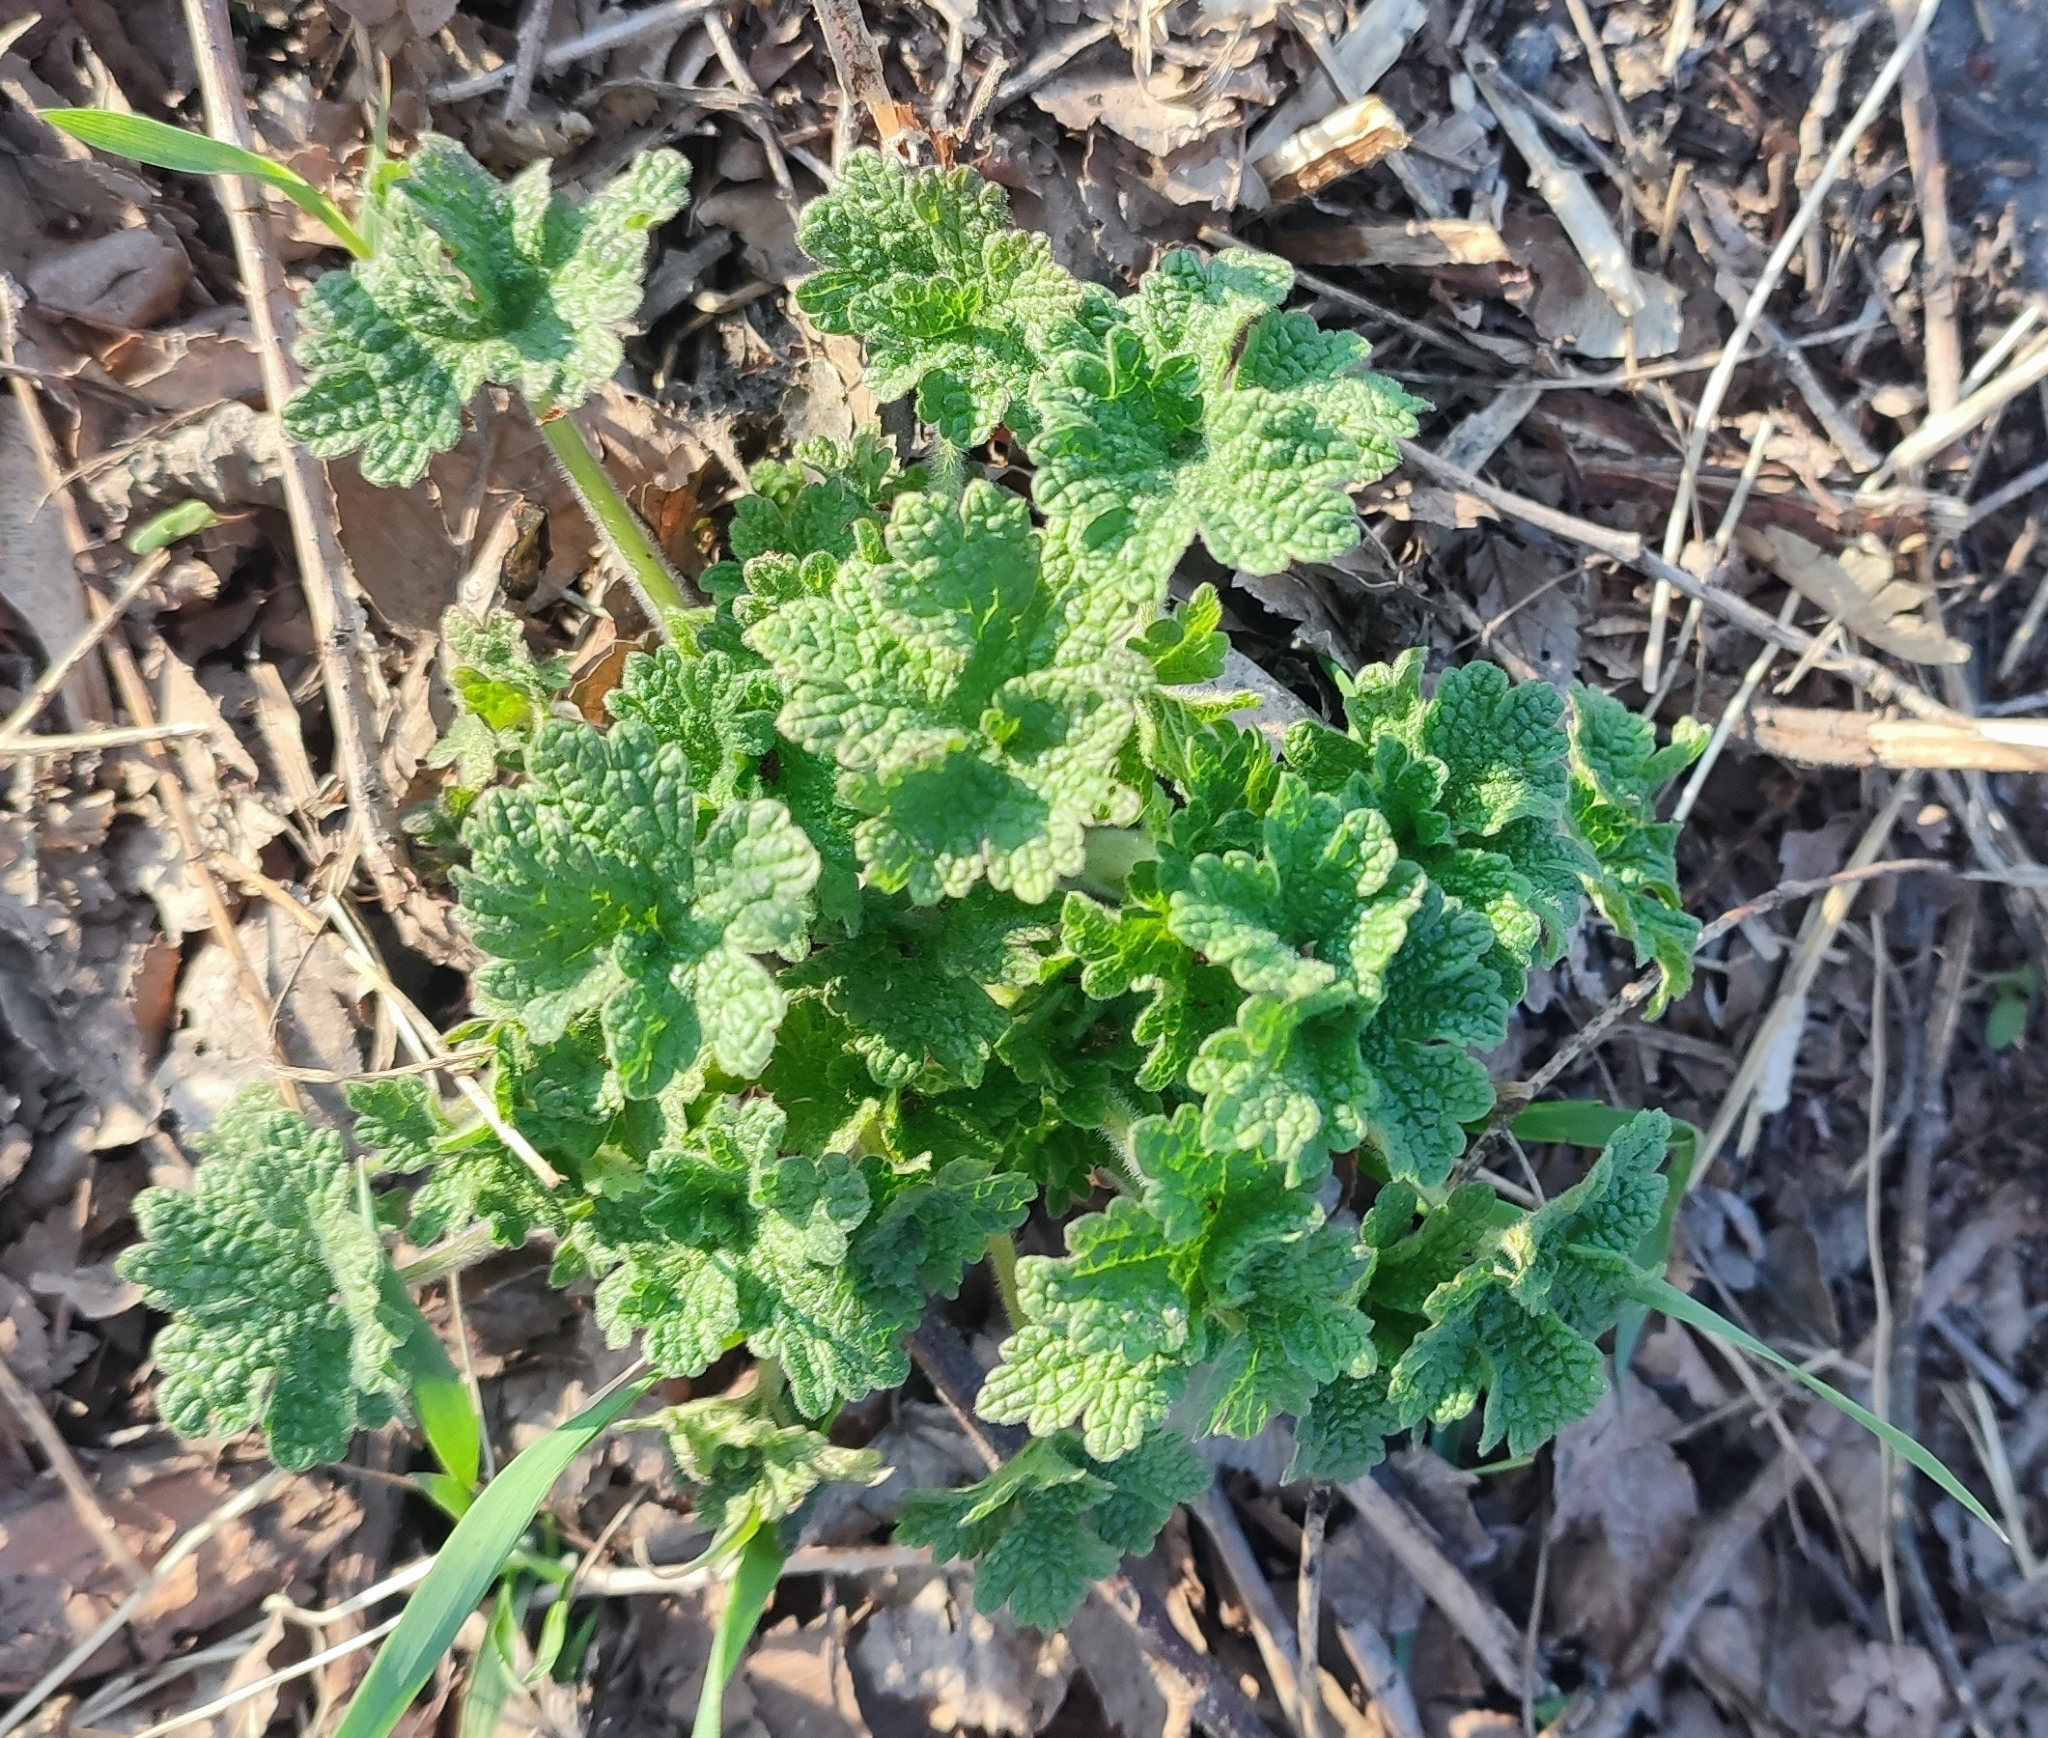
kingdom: Plantae
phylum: Tracheophyta
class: Magnoliopsida
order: Lamiales
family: Lamiaceae
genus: Leonurus
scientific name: Leonurus quinquelobatus
